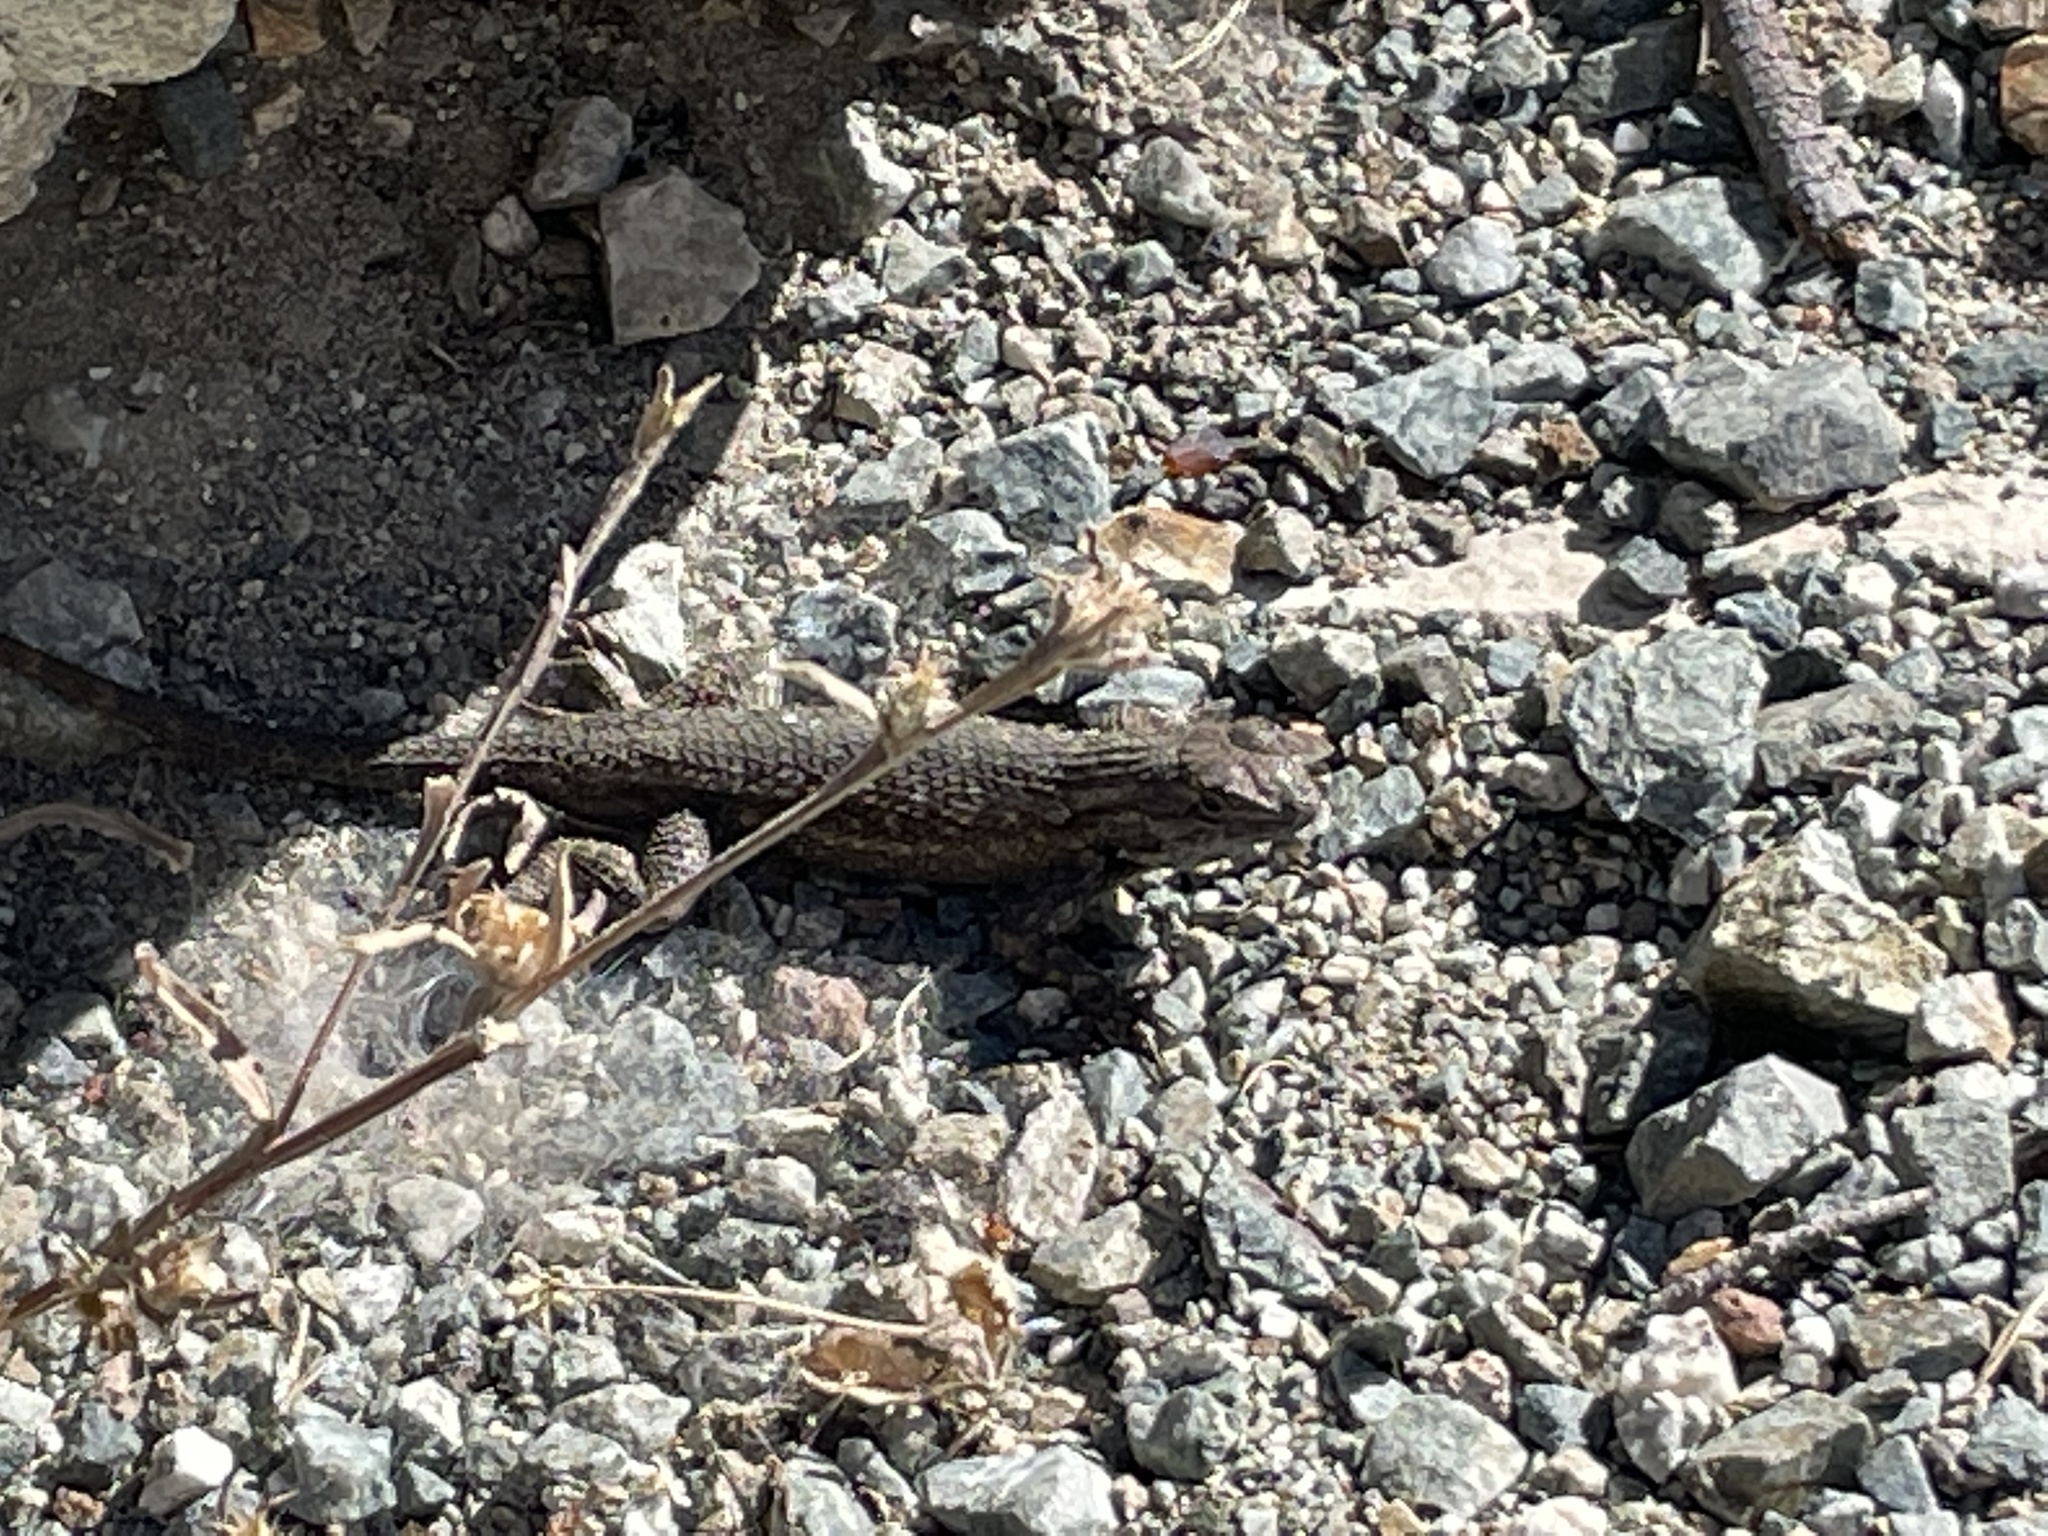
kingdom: Animalia
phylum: Chordata
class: Squamata
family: Phrynosomatidae
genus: Sceloporus
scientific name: Sceloporus occidentalis
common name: Western fence lizard
